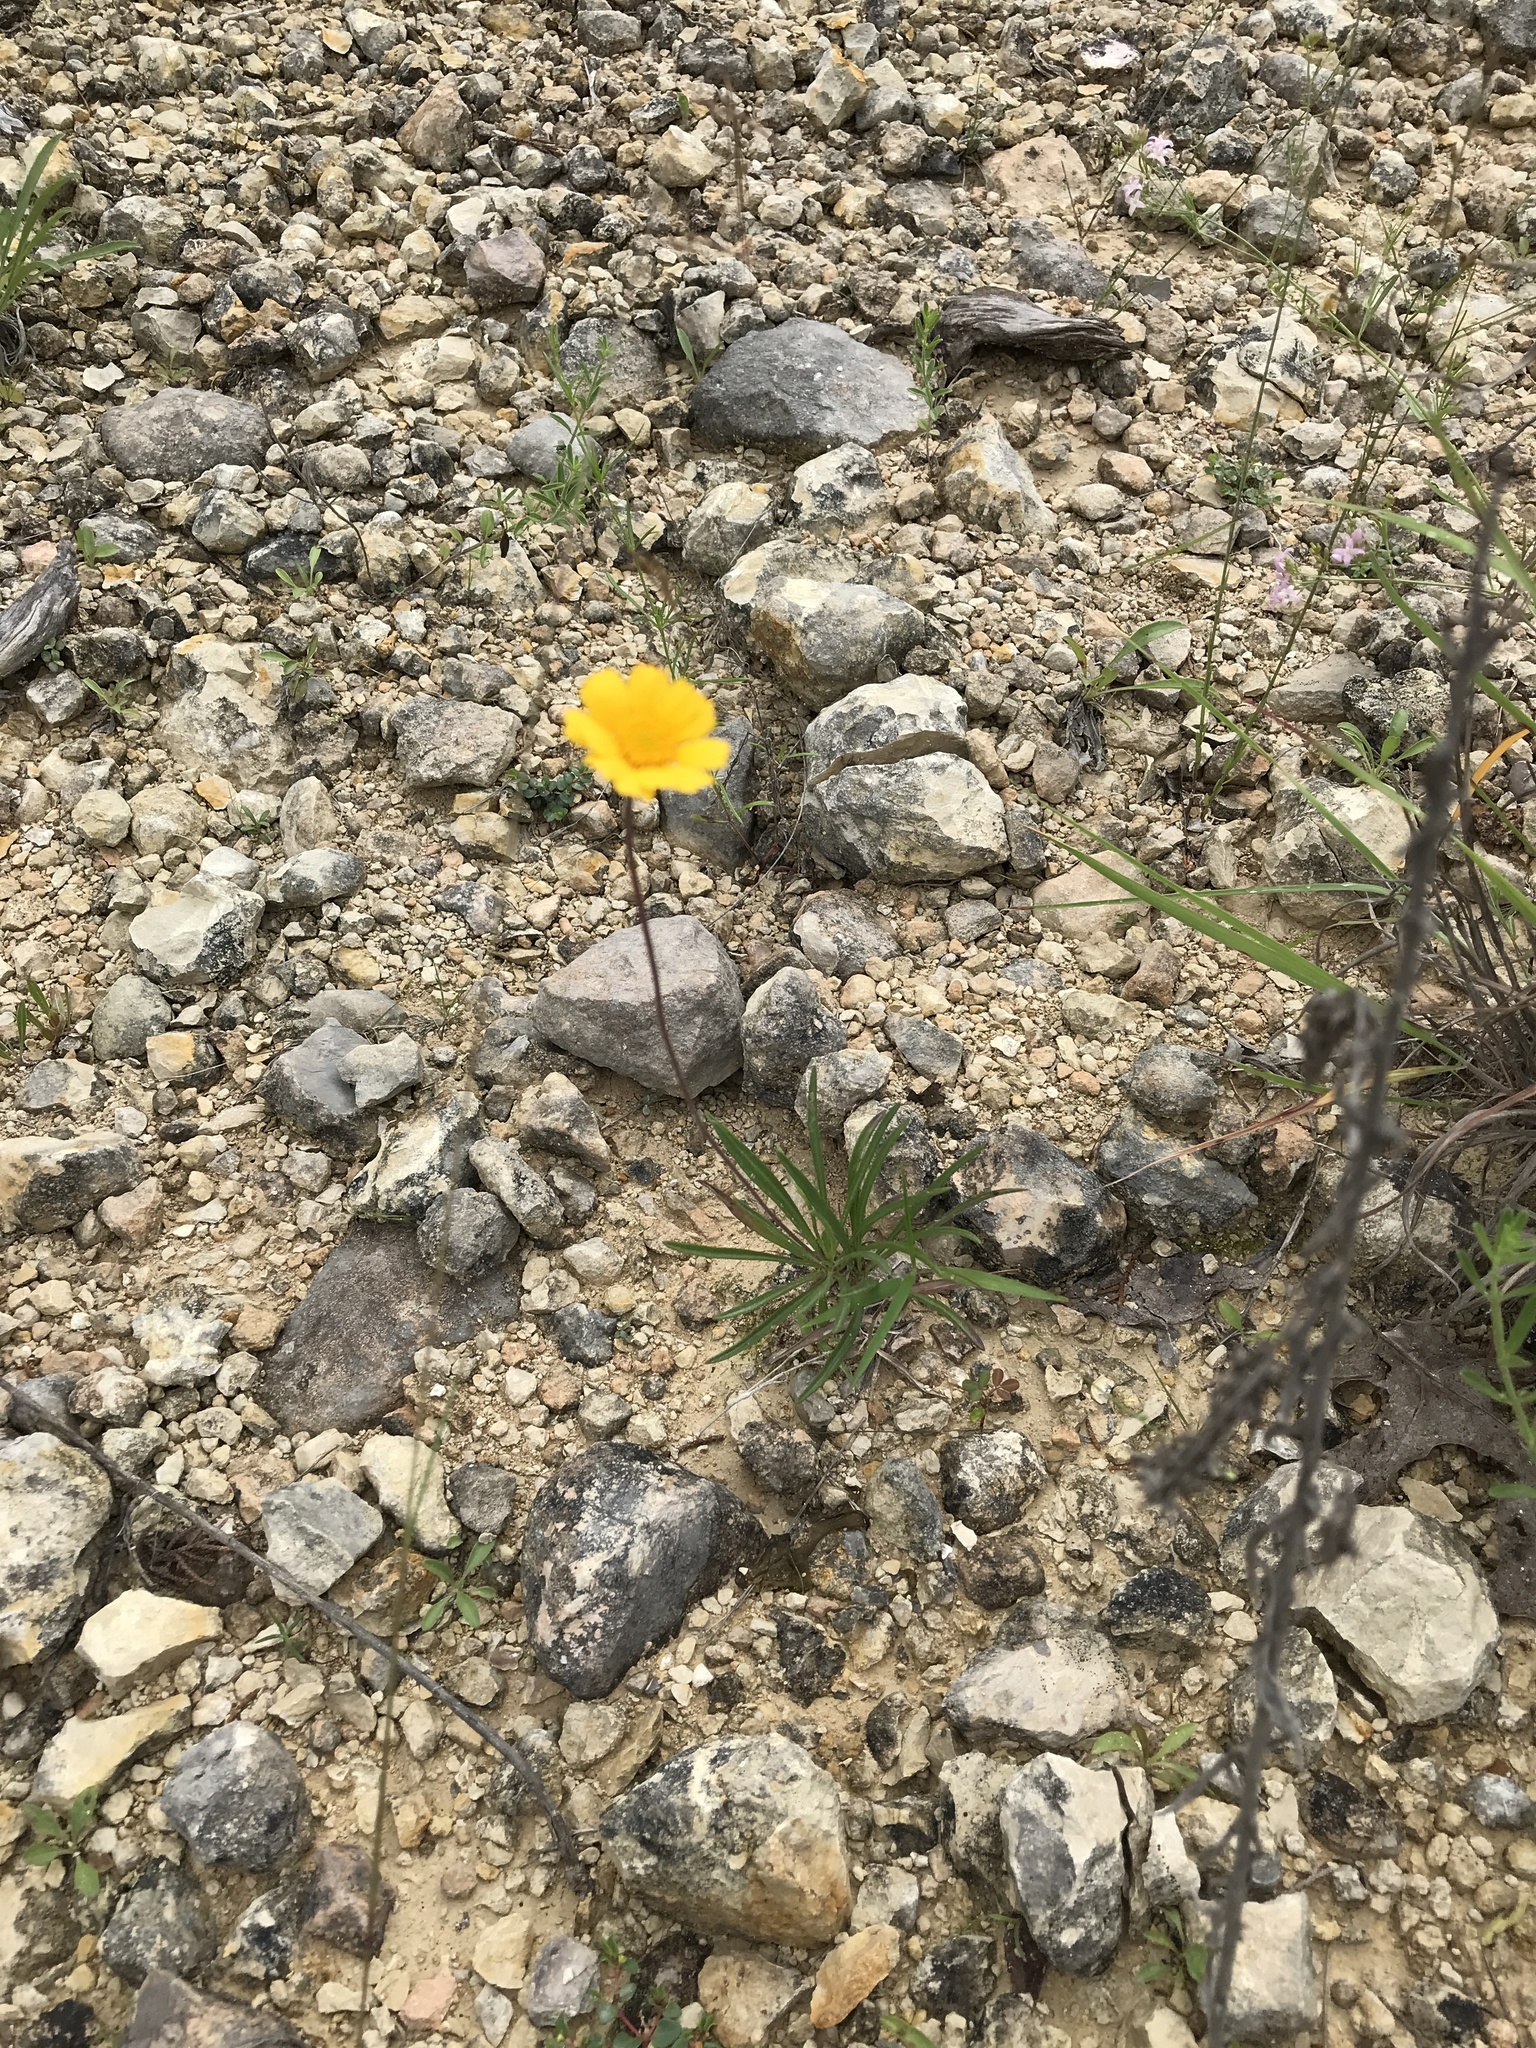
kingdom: Plantae
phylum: Tracheophyta
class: Magnoliopsida
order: Asterales
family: Asteraceae
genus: Tetraneuris
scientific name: Tetraneuris scaposa
